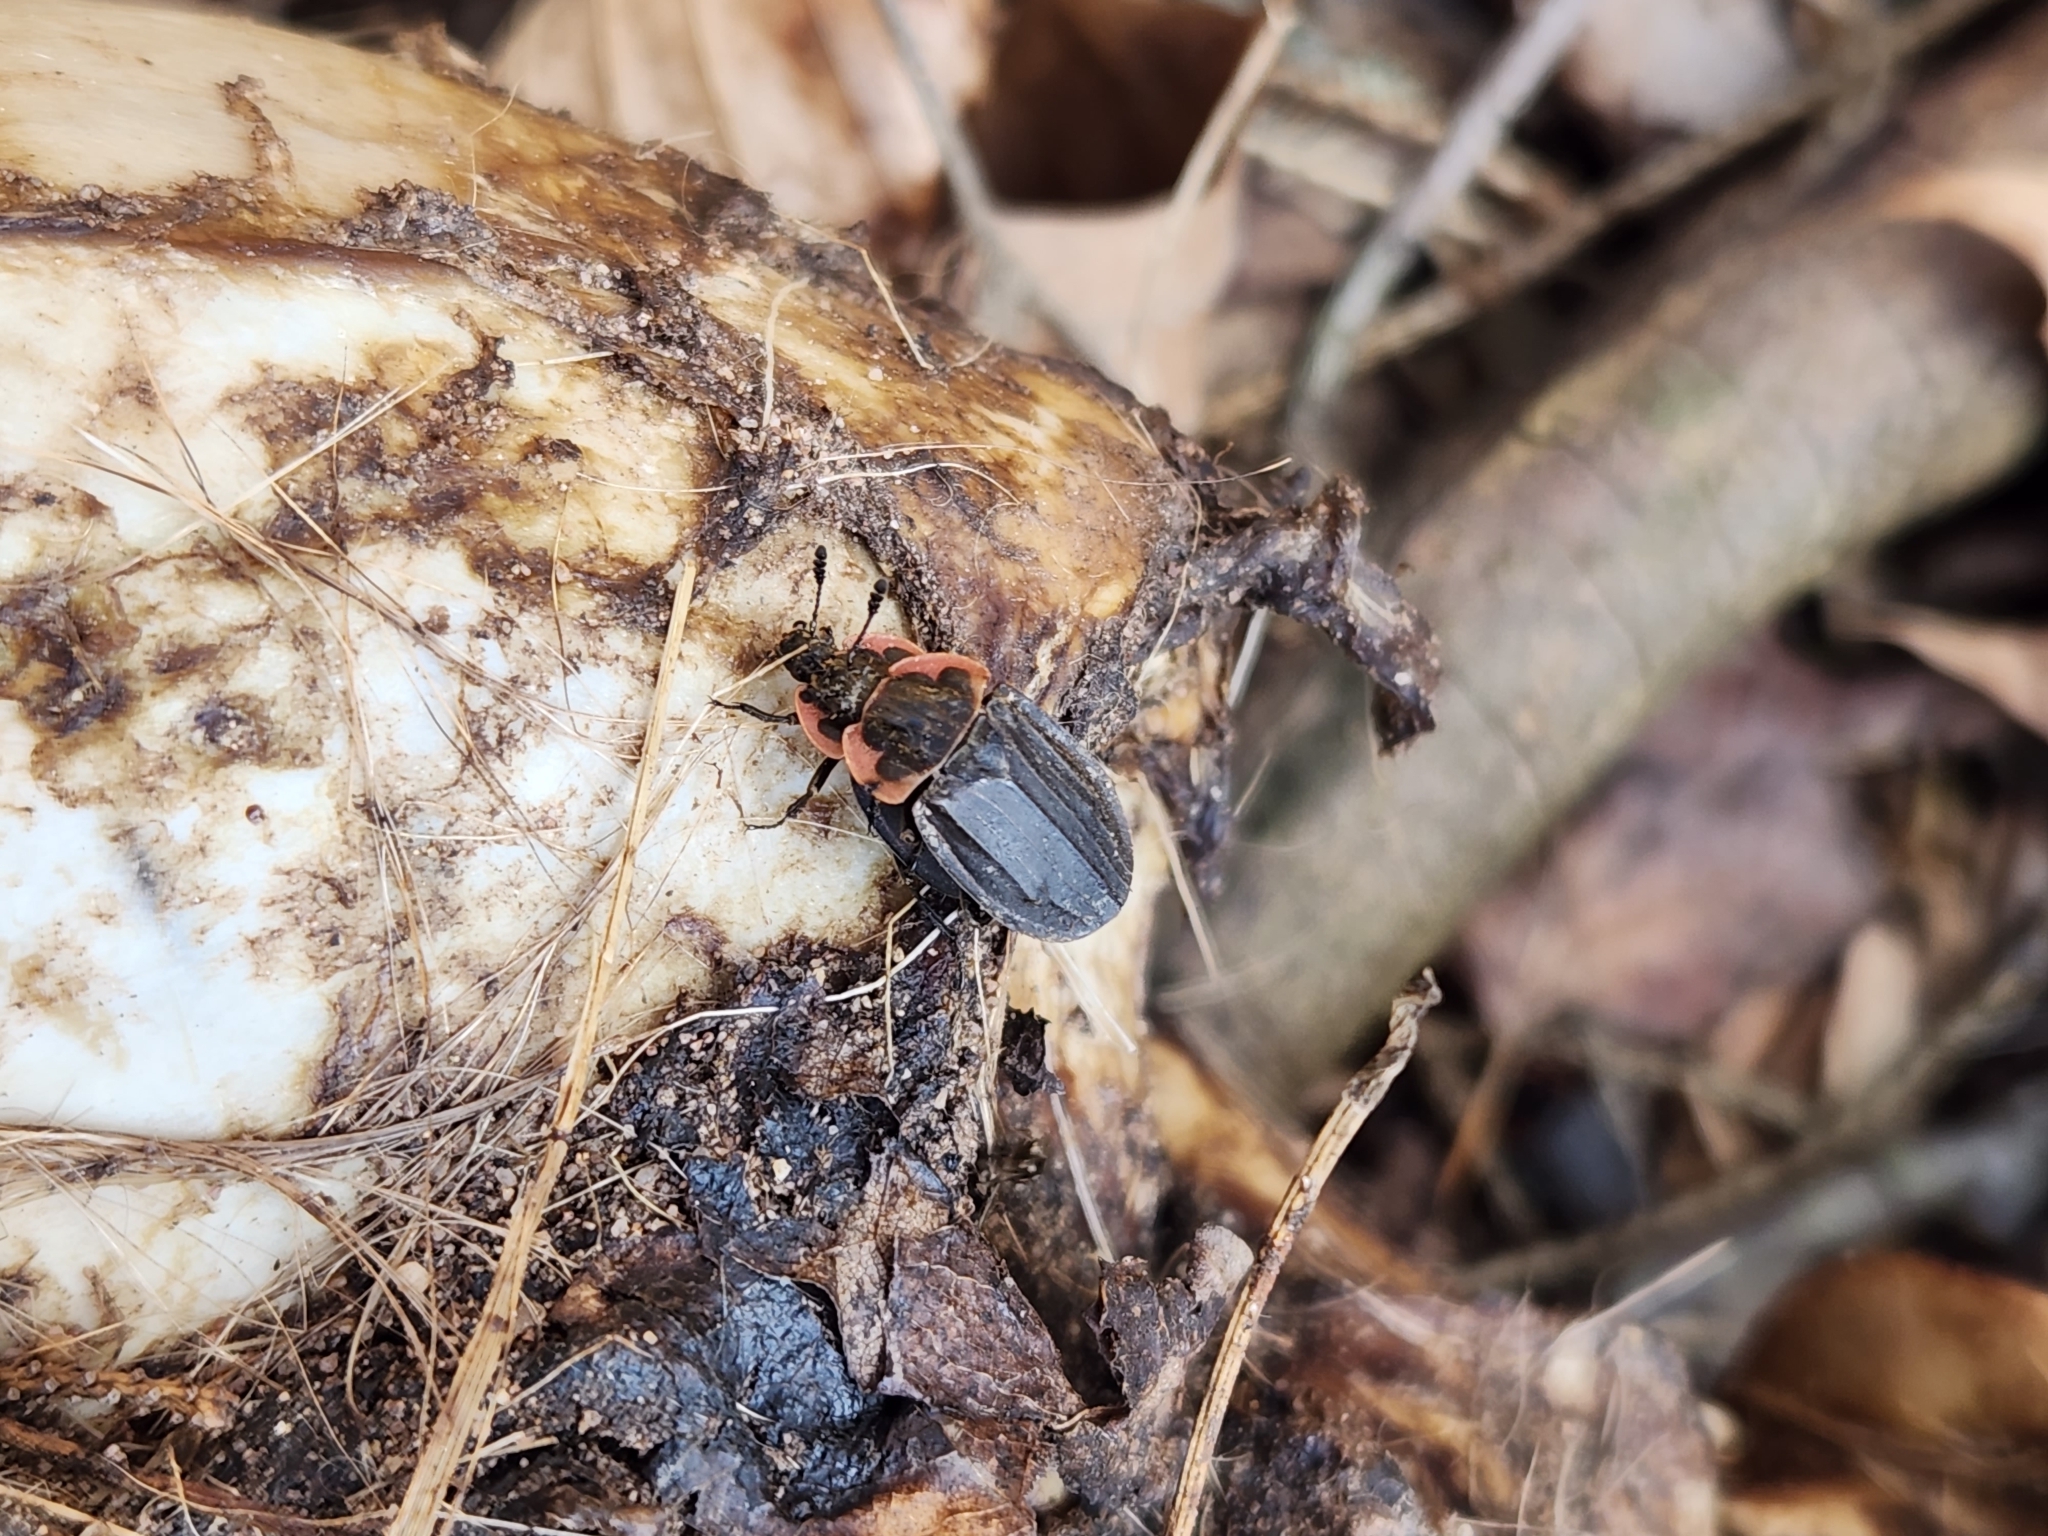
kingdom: Animalia
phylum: Arthropoda
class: Insecta
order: Coleoptera
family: Staphylinidae
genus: Oiceoptoma
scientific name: Oiceoptoma noveboracense
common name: Margined carrion beetle
